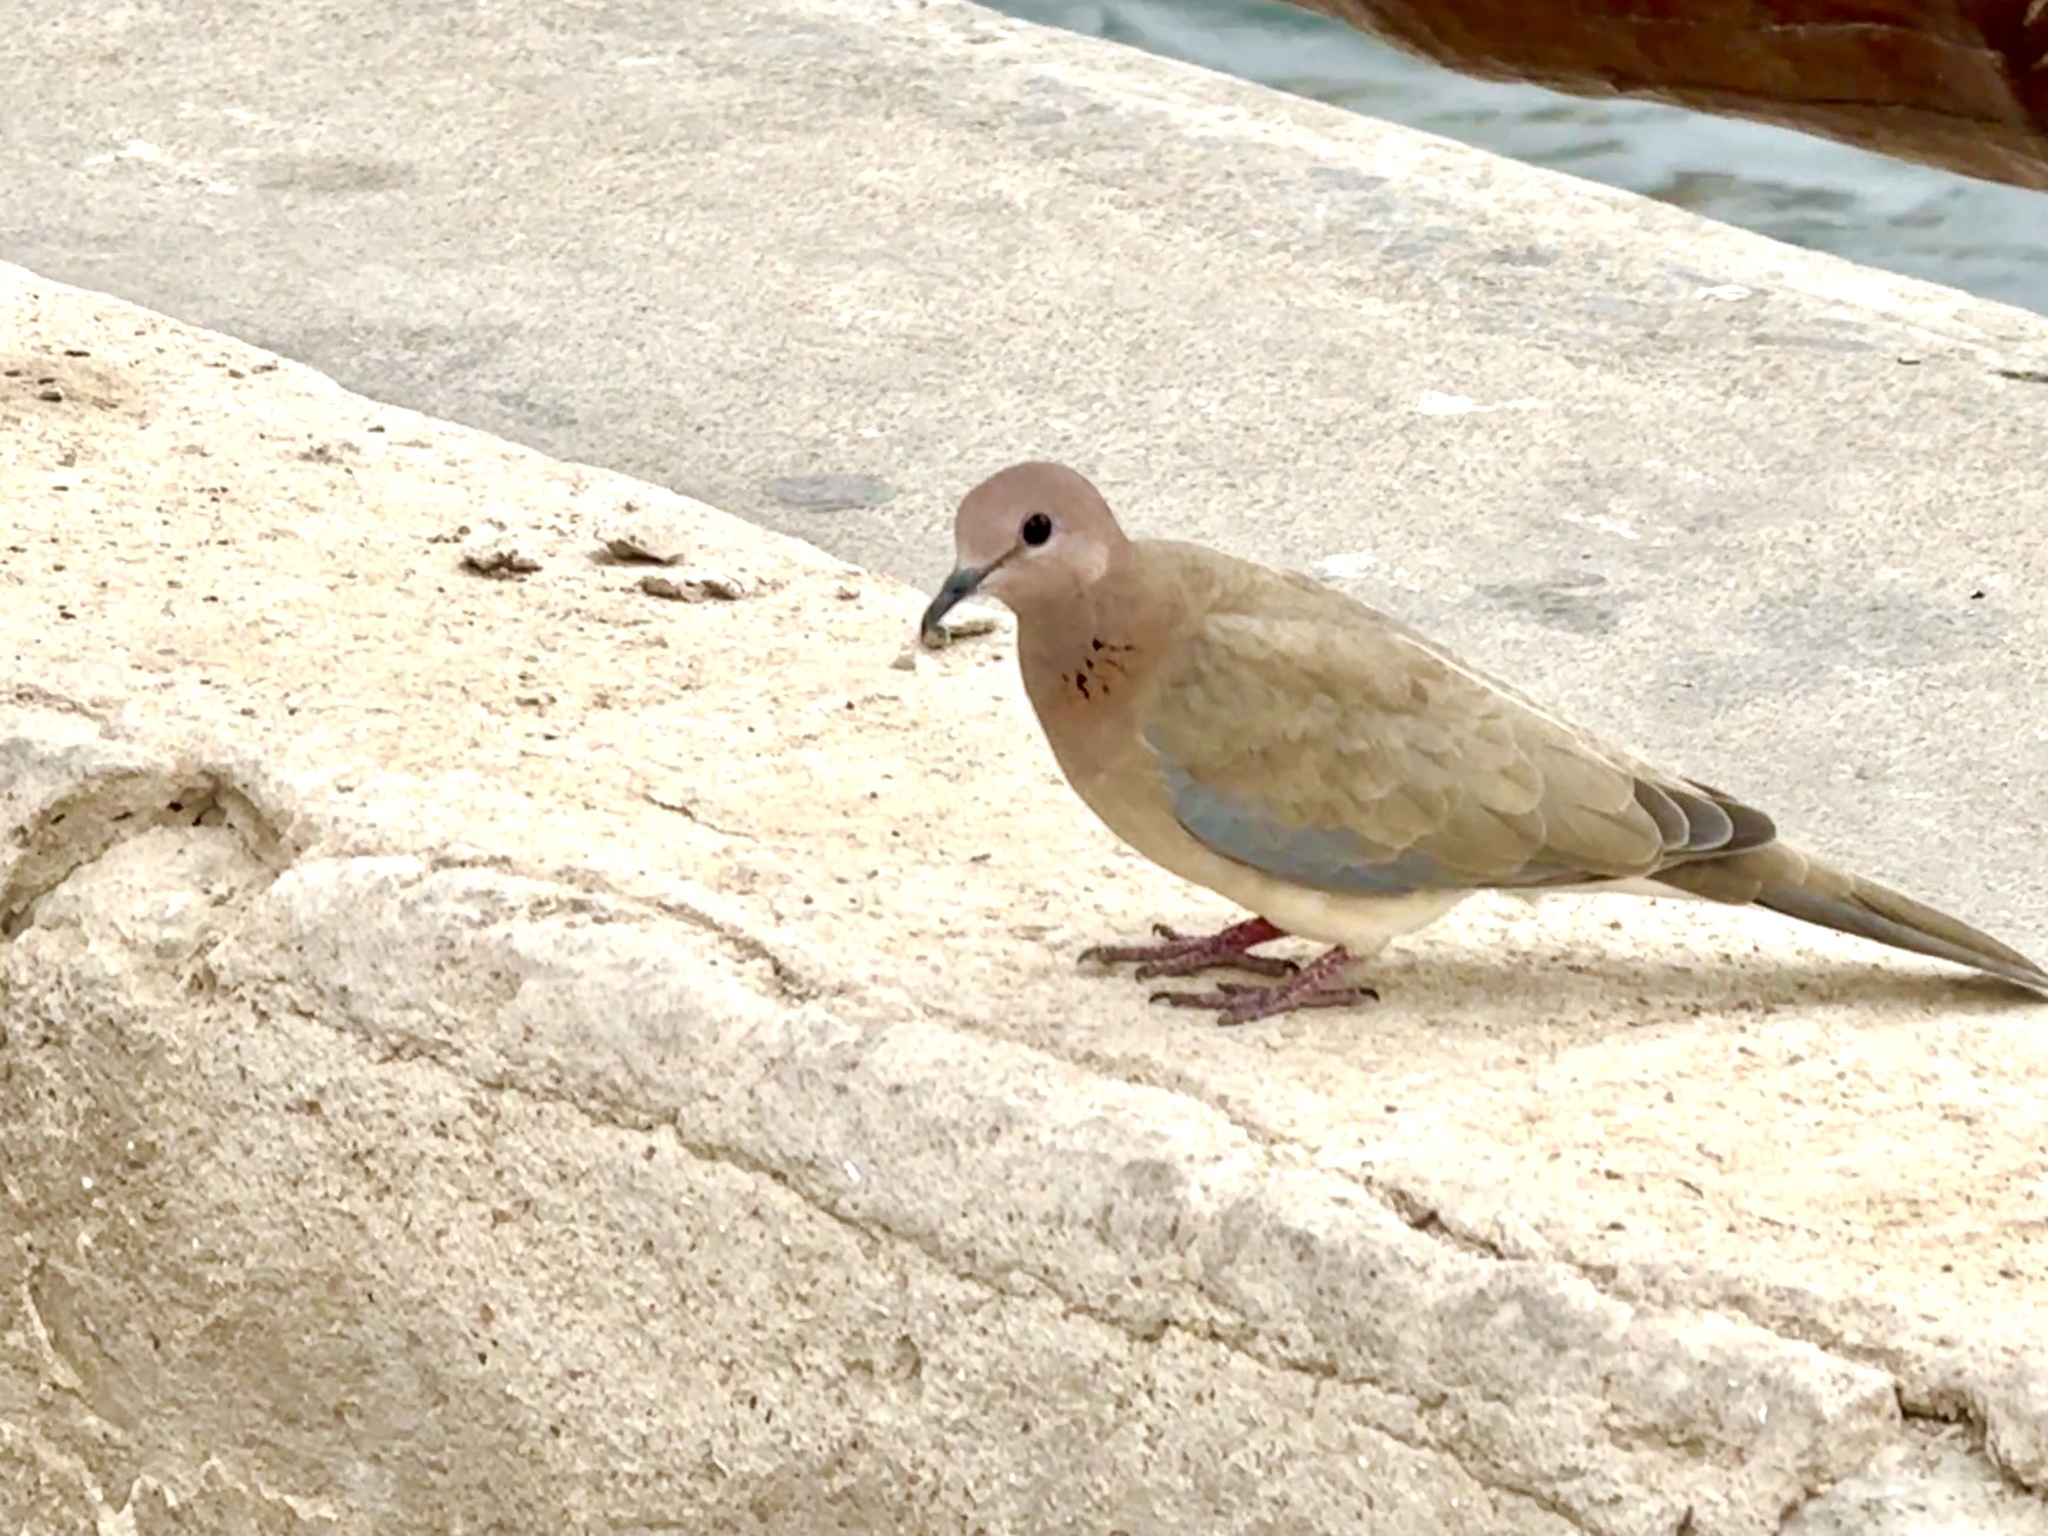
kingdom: Animalia
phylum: Chordata
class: Aves
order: Columbiformes
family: Columbidae
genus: Spilopelia
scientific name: Spilopelia senegalensis
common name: Laughing dove
